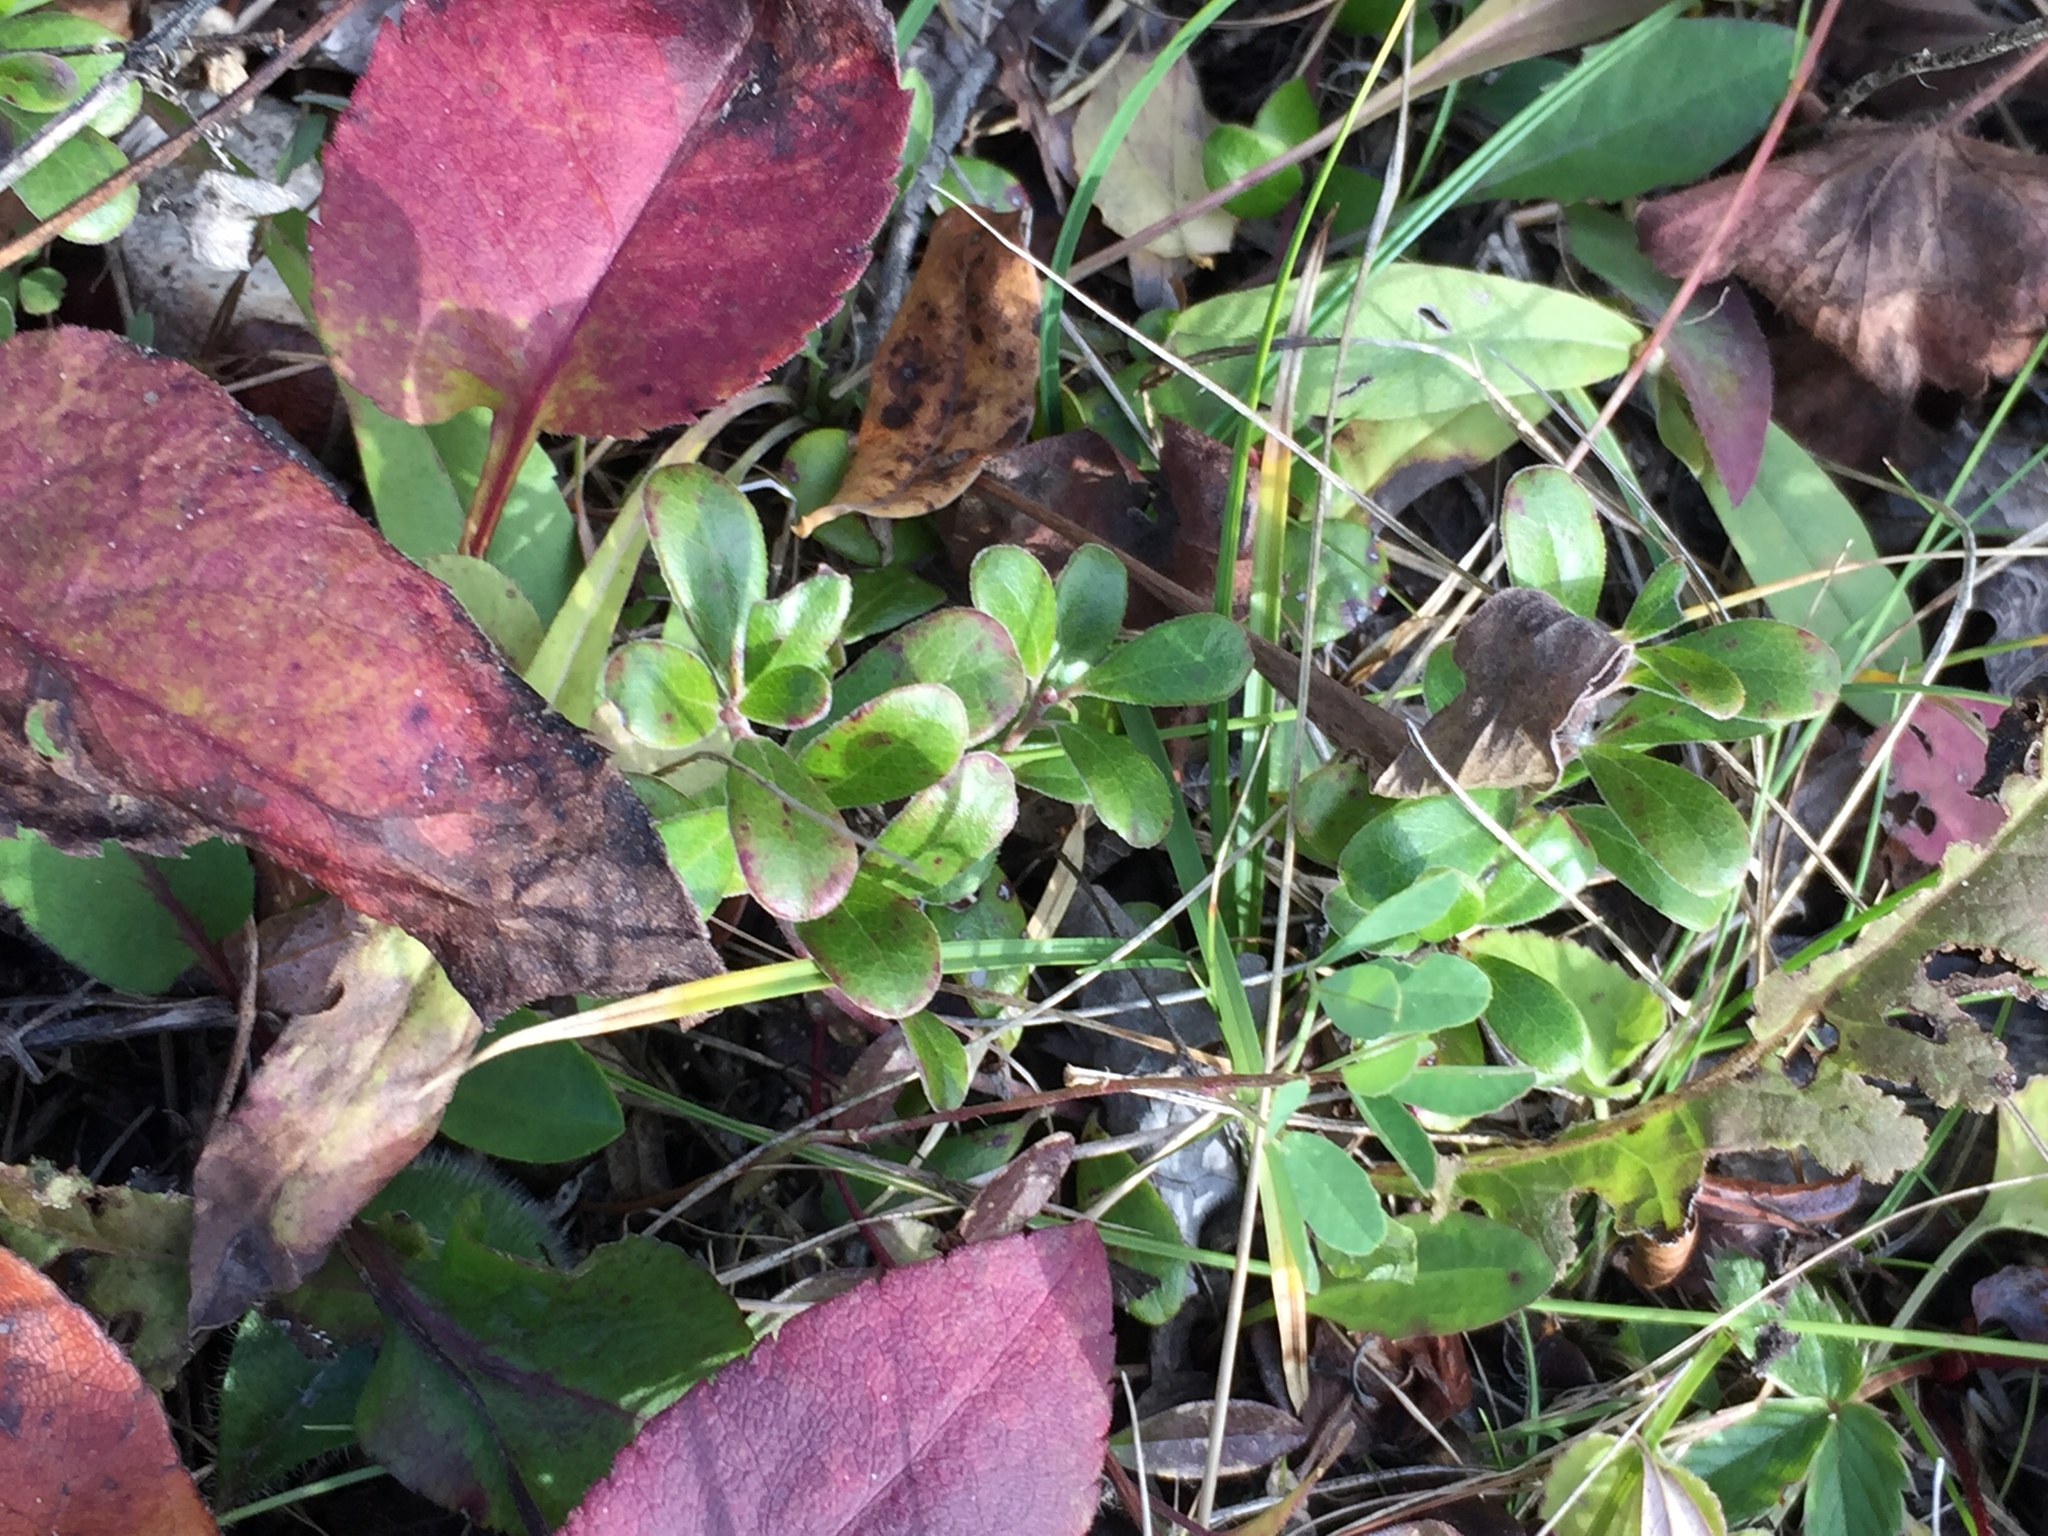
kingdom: Plantae
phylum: Tracheophyta
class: Magnoliopsida
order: Ericales
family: Ericaceae
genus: Arctostaphylos
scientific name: Arctostaphylos uva-ursi
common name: Bearberry
